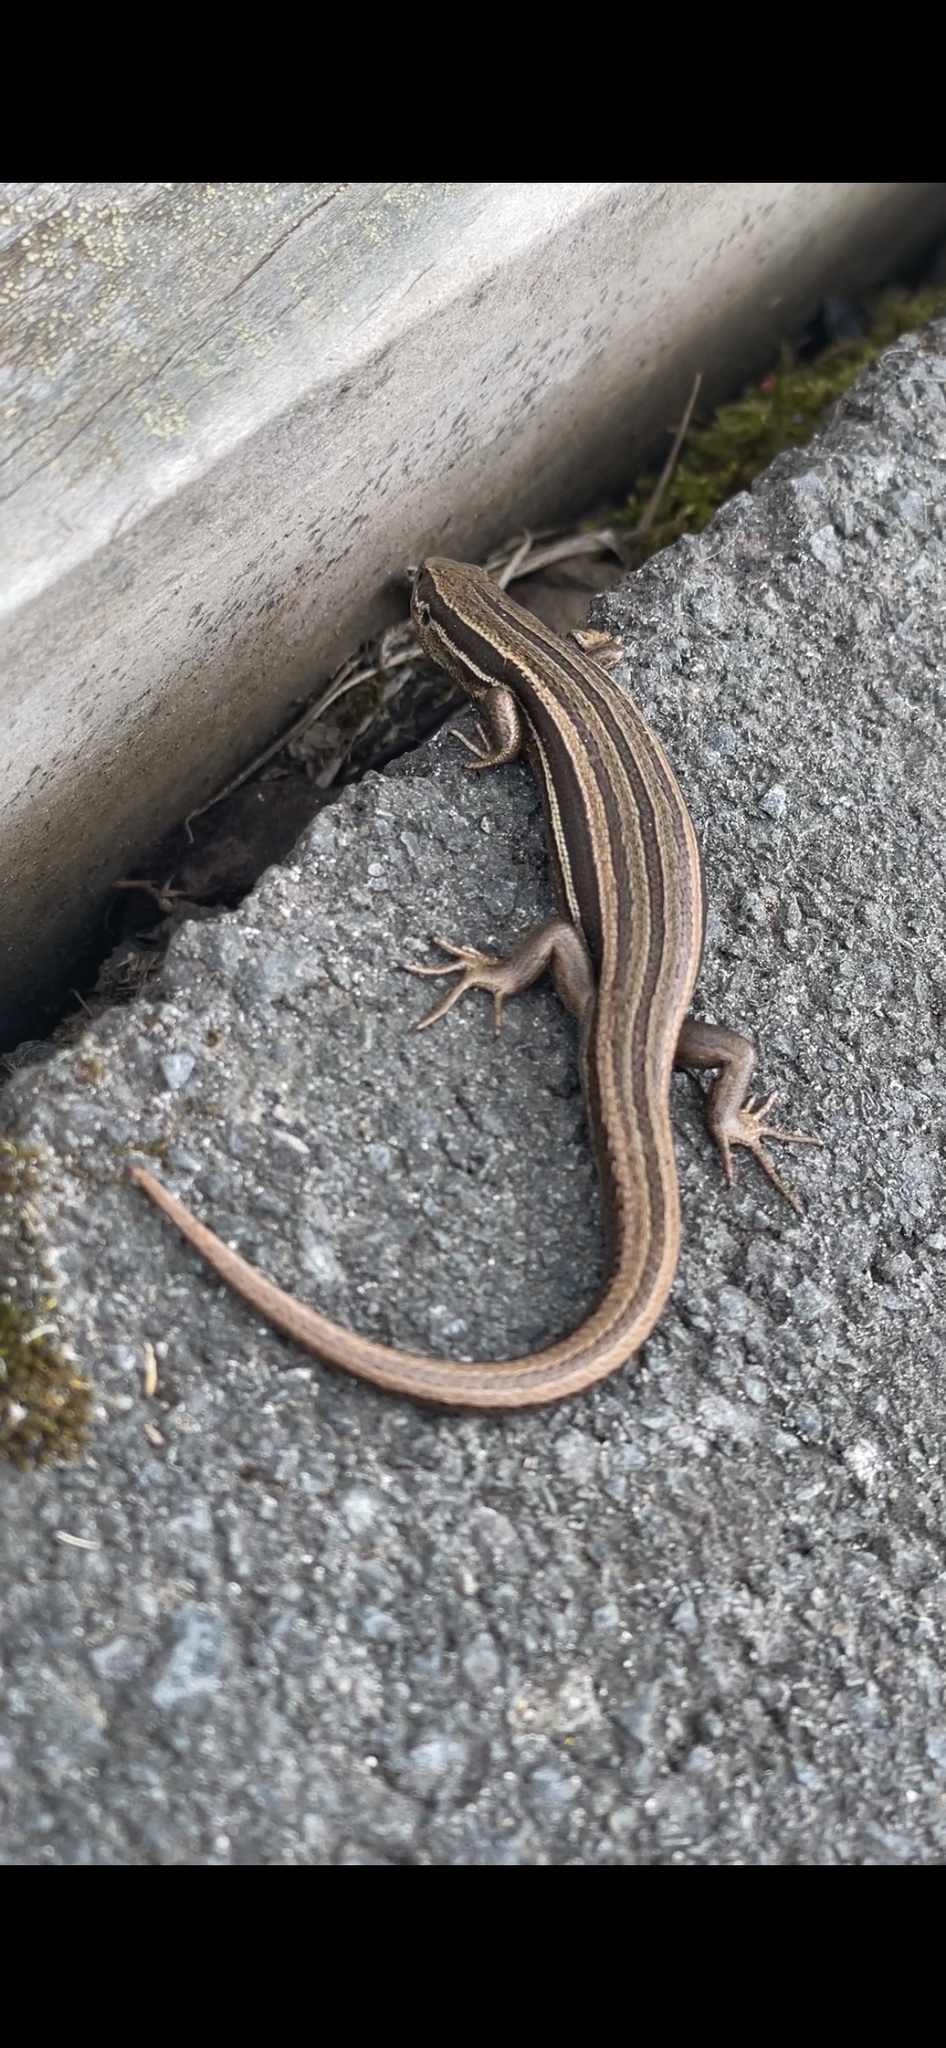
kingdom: Animalia
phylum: Chordata
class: Squamata
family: Scincidae
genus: Oligosoma
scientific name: Oligosoma polychroma
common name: Common new zealand skink
